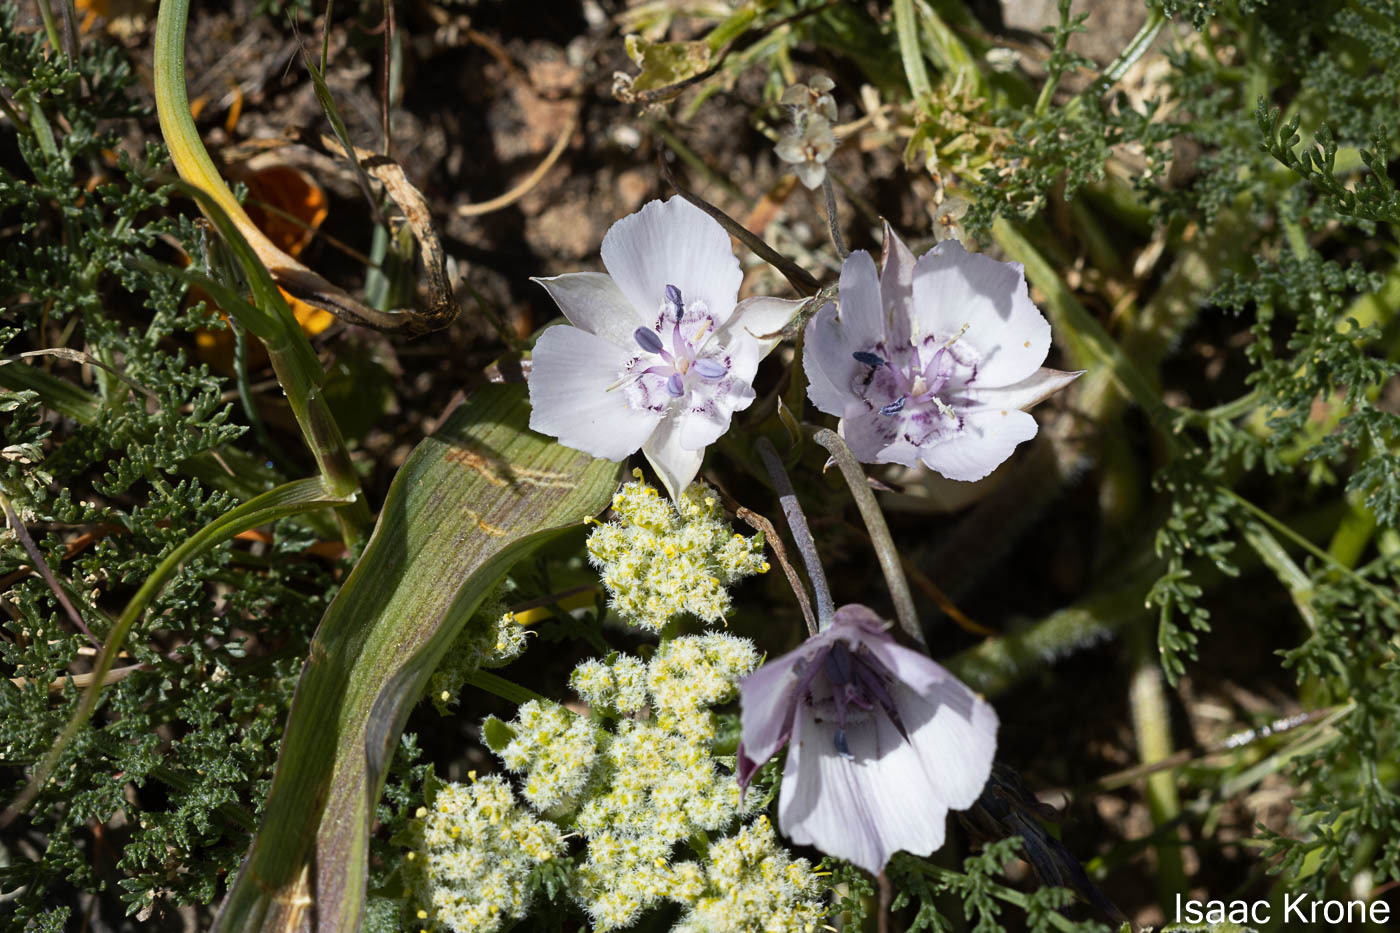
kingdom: Plantae
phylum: Tracheophyta
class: Liliopsida
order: Liliales
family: Liliaceae
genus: Calochortus
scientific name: Calochortus umbellatus
